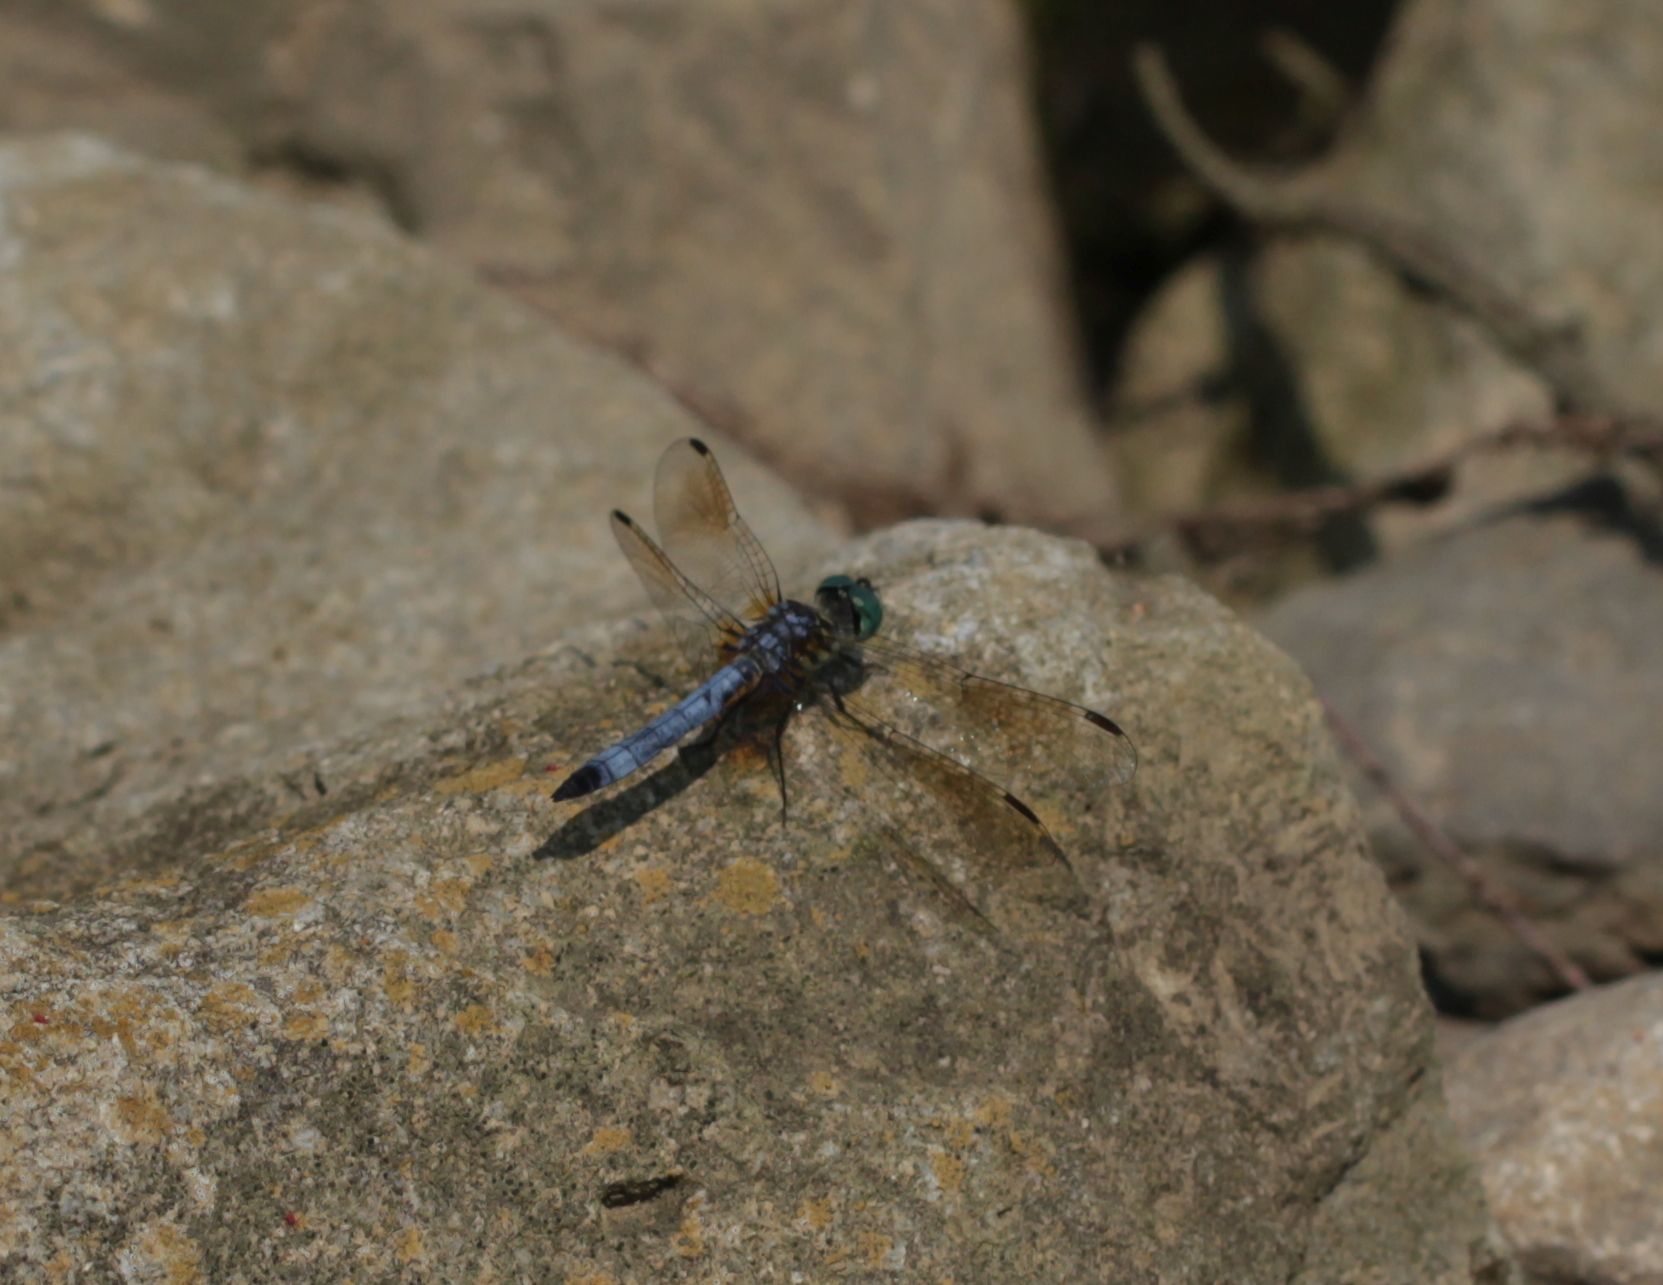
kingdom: Animalia
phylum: Arthropoda
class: Insecta
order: Odonata
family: Libellulidae
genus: Pachydiplax
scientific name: Pachydiplax longipennis
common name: Blue dasher
